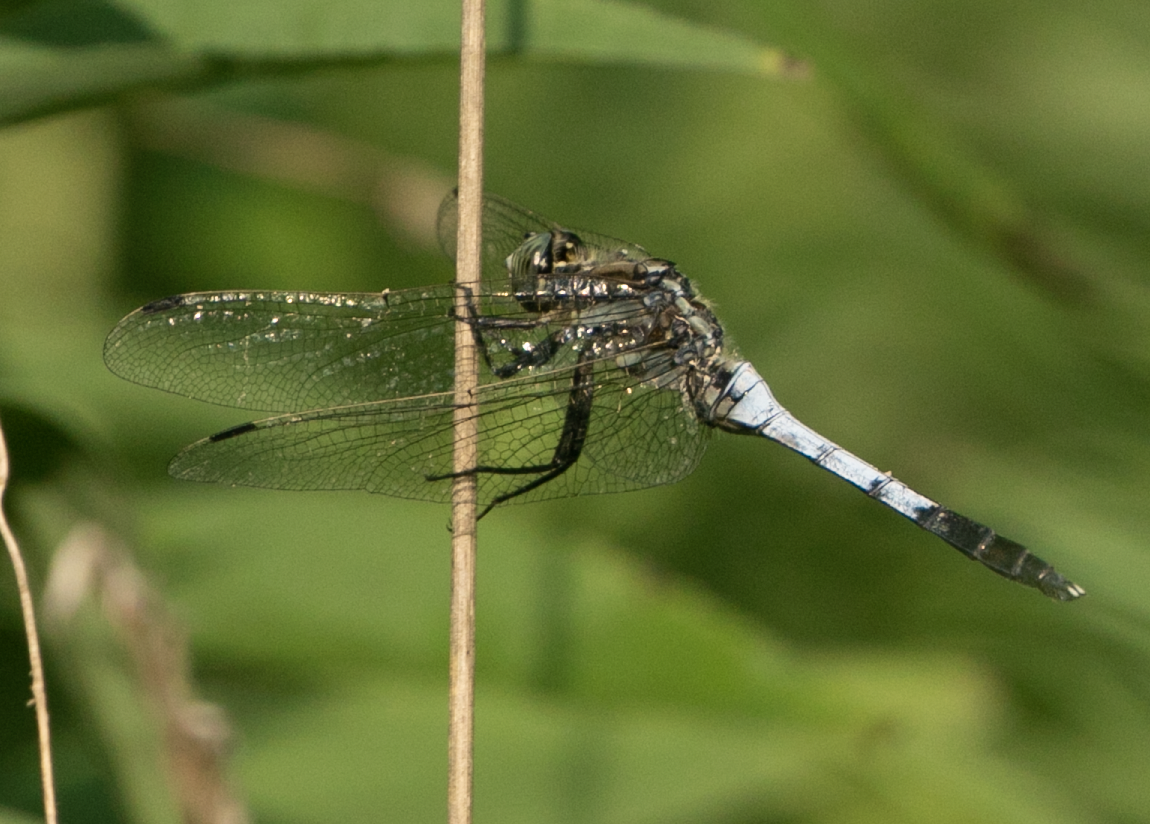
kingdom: Animalia
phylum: Arthropoda
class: Insecta
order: Odonata
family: Libellulidae
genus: Orthetrum
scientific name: Orthetrum albistylum
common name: White-tailed skimmer
